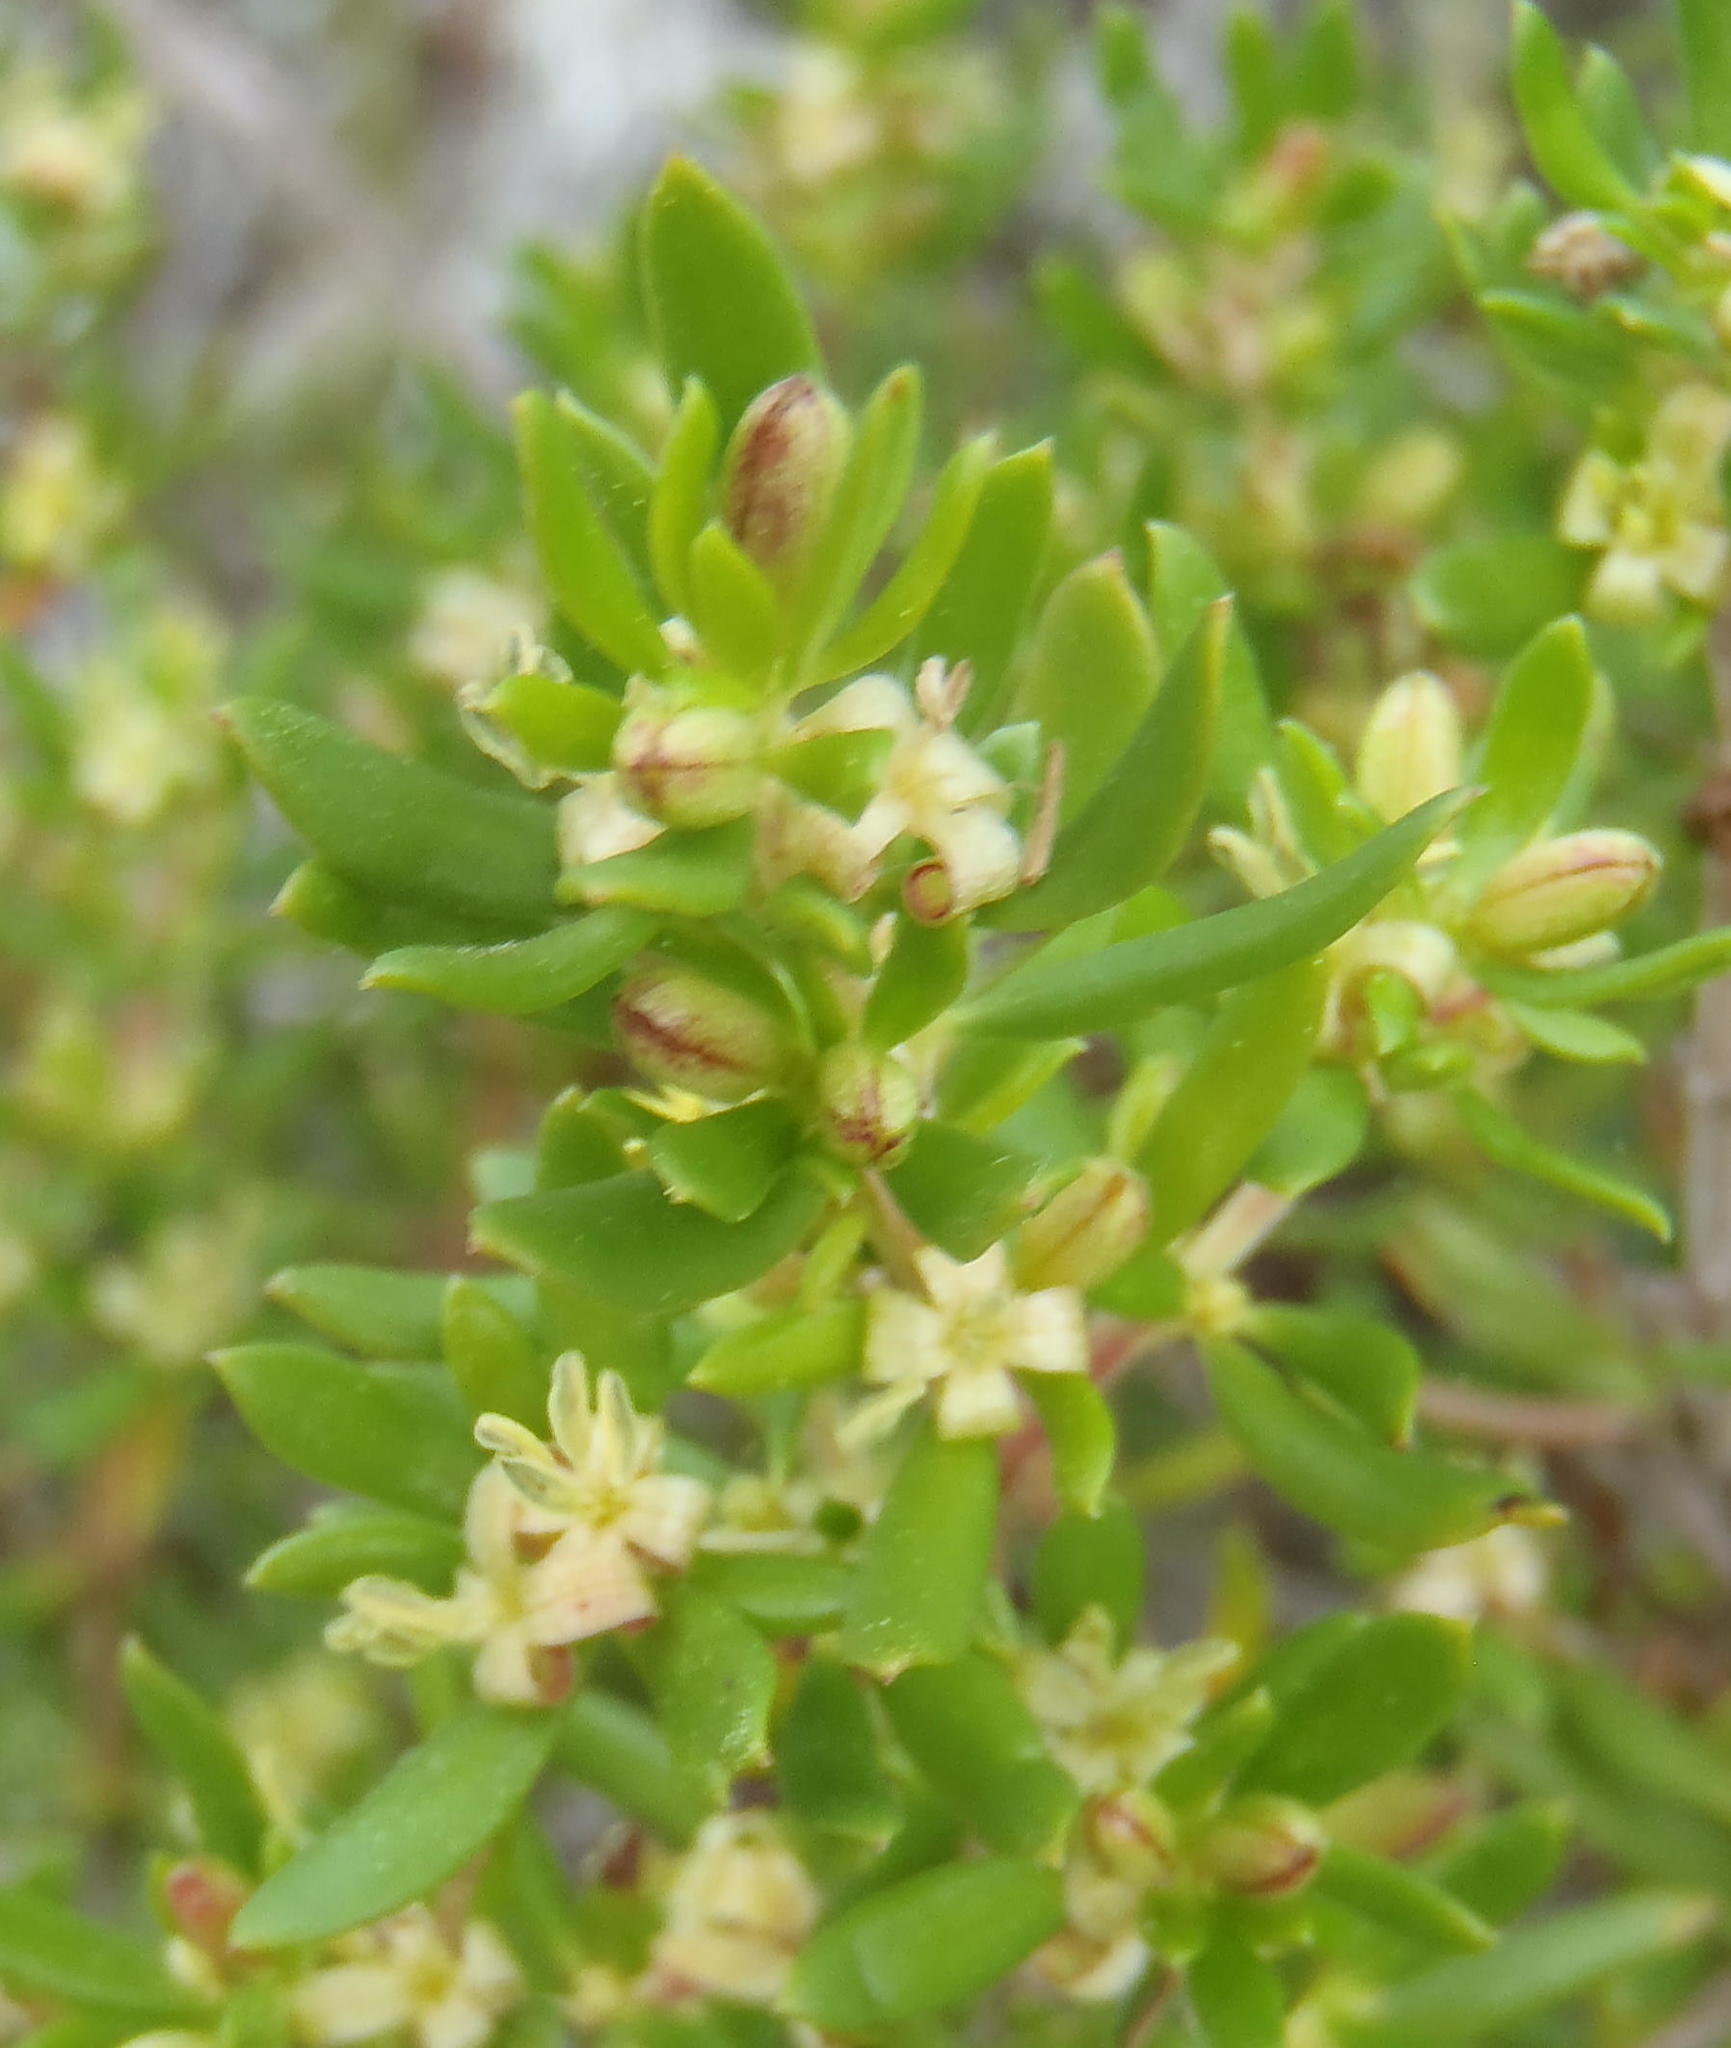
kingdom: Plantae
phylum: Tracheophyta
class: Magnoliopsida
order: Gentianales
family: Rubiaceae
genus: Anthospermum
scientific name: Anthospermum aethiopicum
